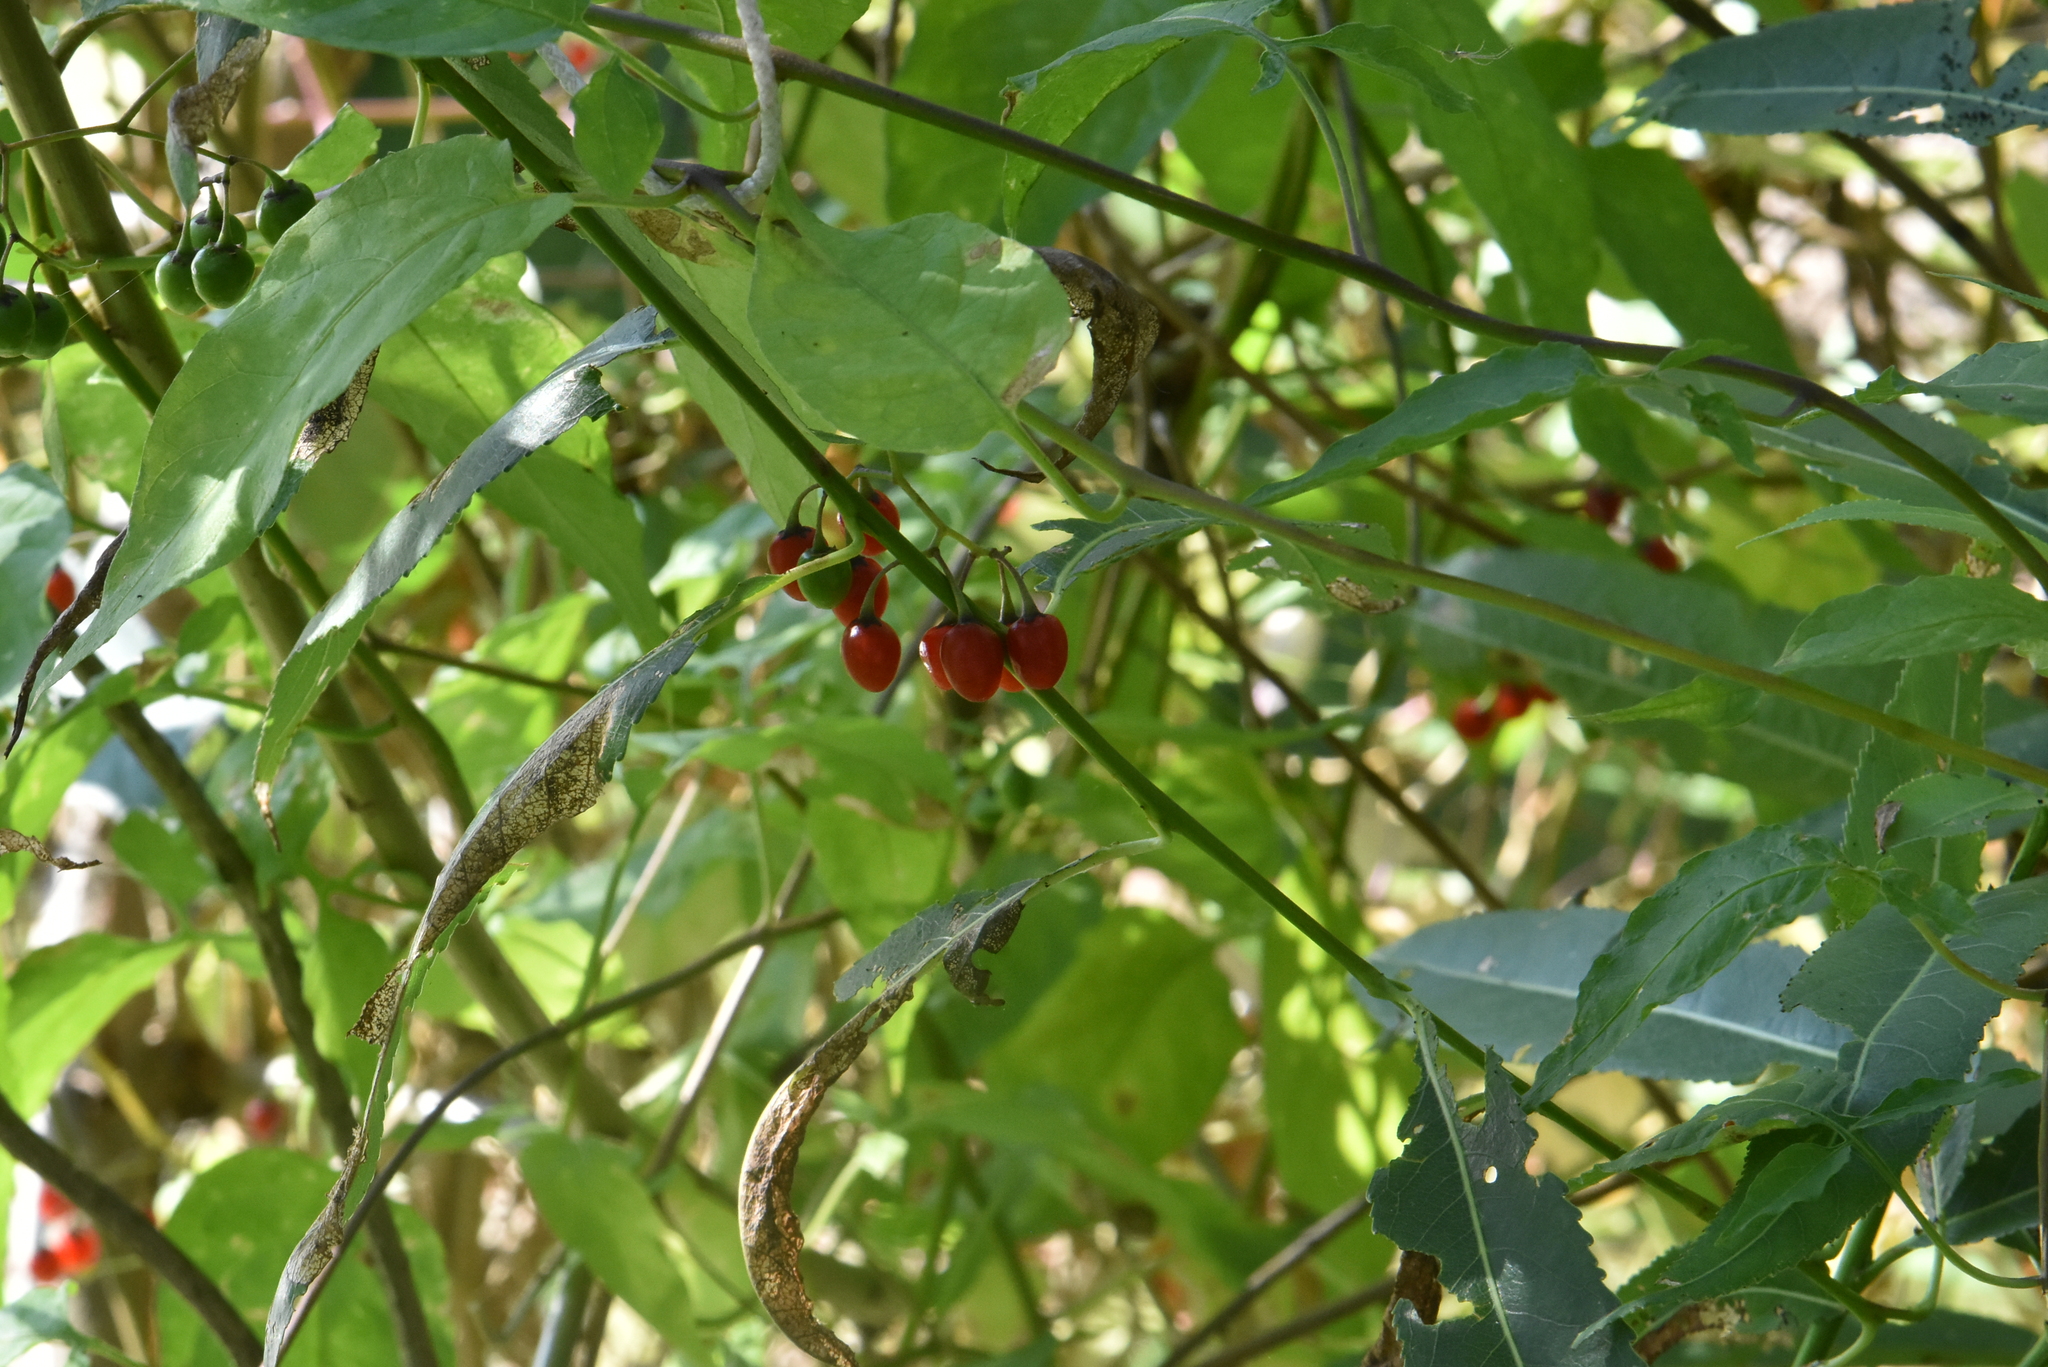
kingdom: Plantae
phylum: Tracheophyta
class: Magnoliopsida
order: Solanales
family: Solanaceae
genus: Solanum
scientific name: Solanum dulcamara
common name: Climbing nightshade
